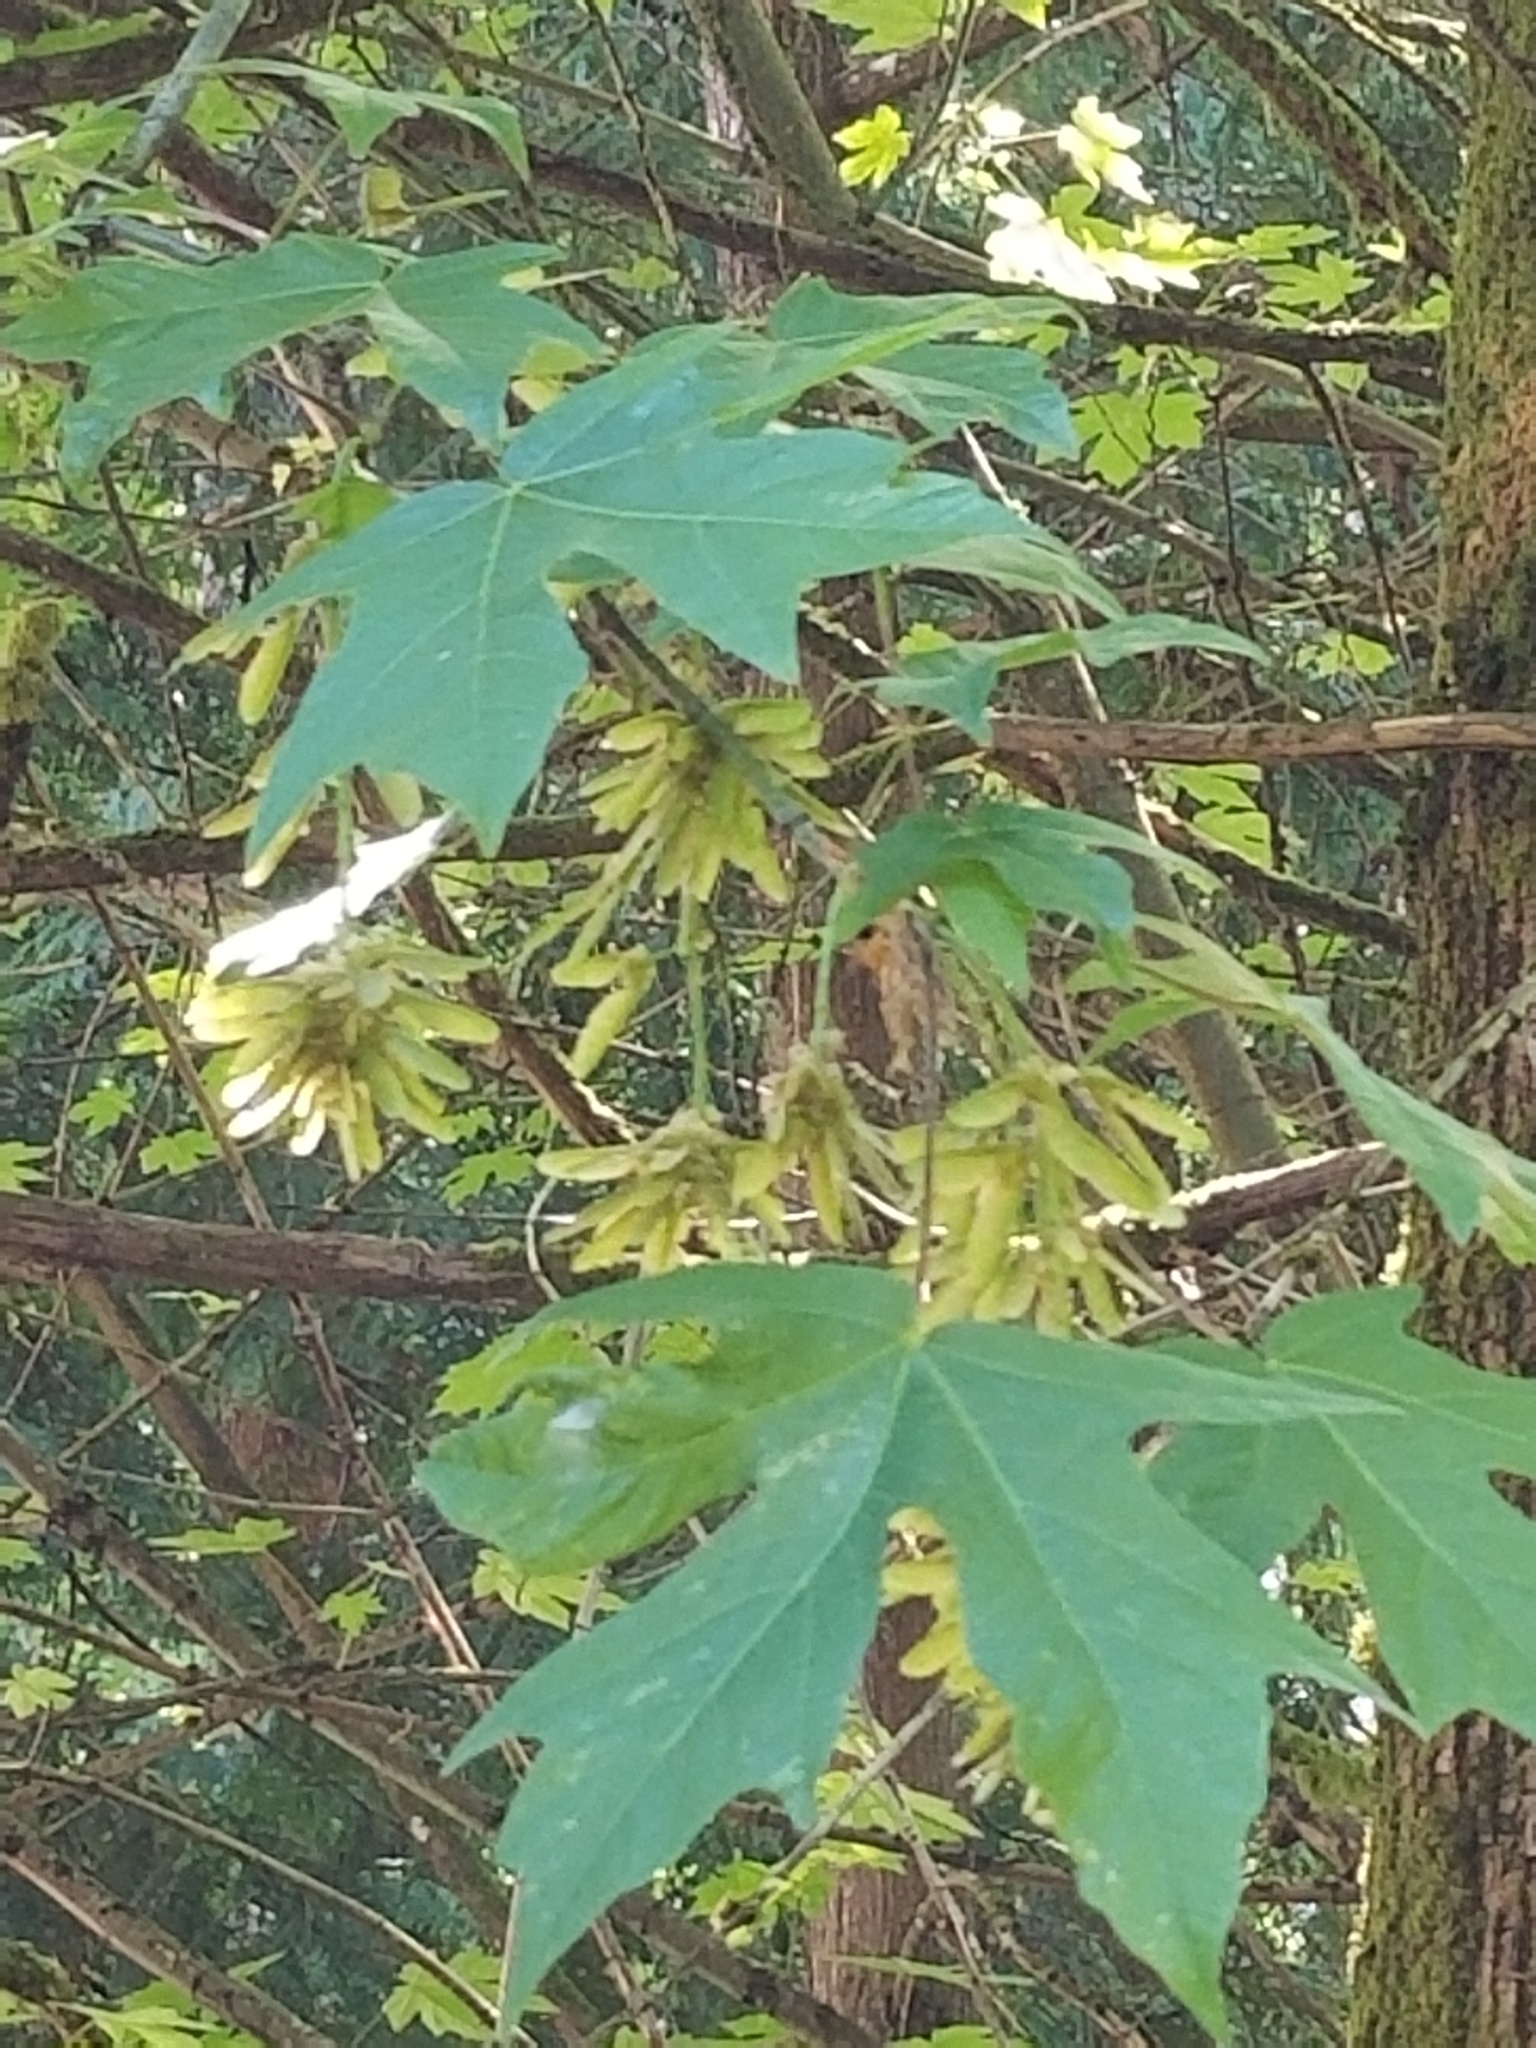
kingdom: Plantae
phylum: Tracheophyta
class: Magnoliopsida
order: Sapindales
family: Sapindaceae
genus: Acer
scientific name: Acer macrophyllum
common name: Oregon maple
